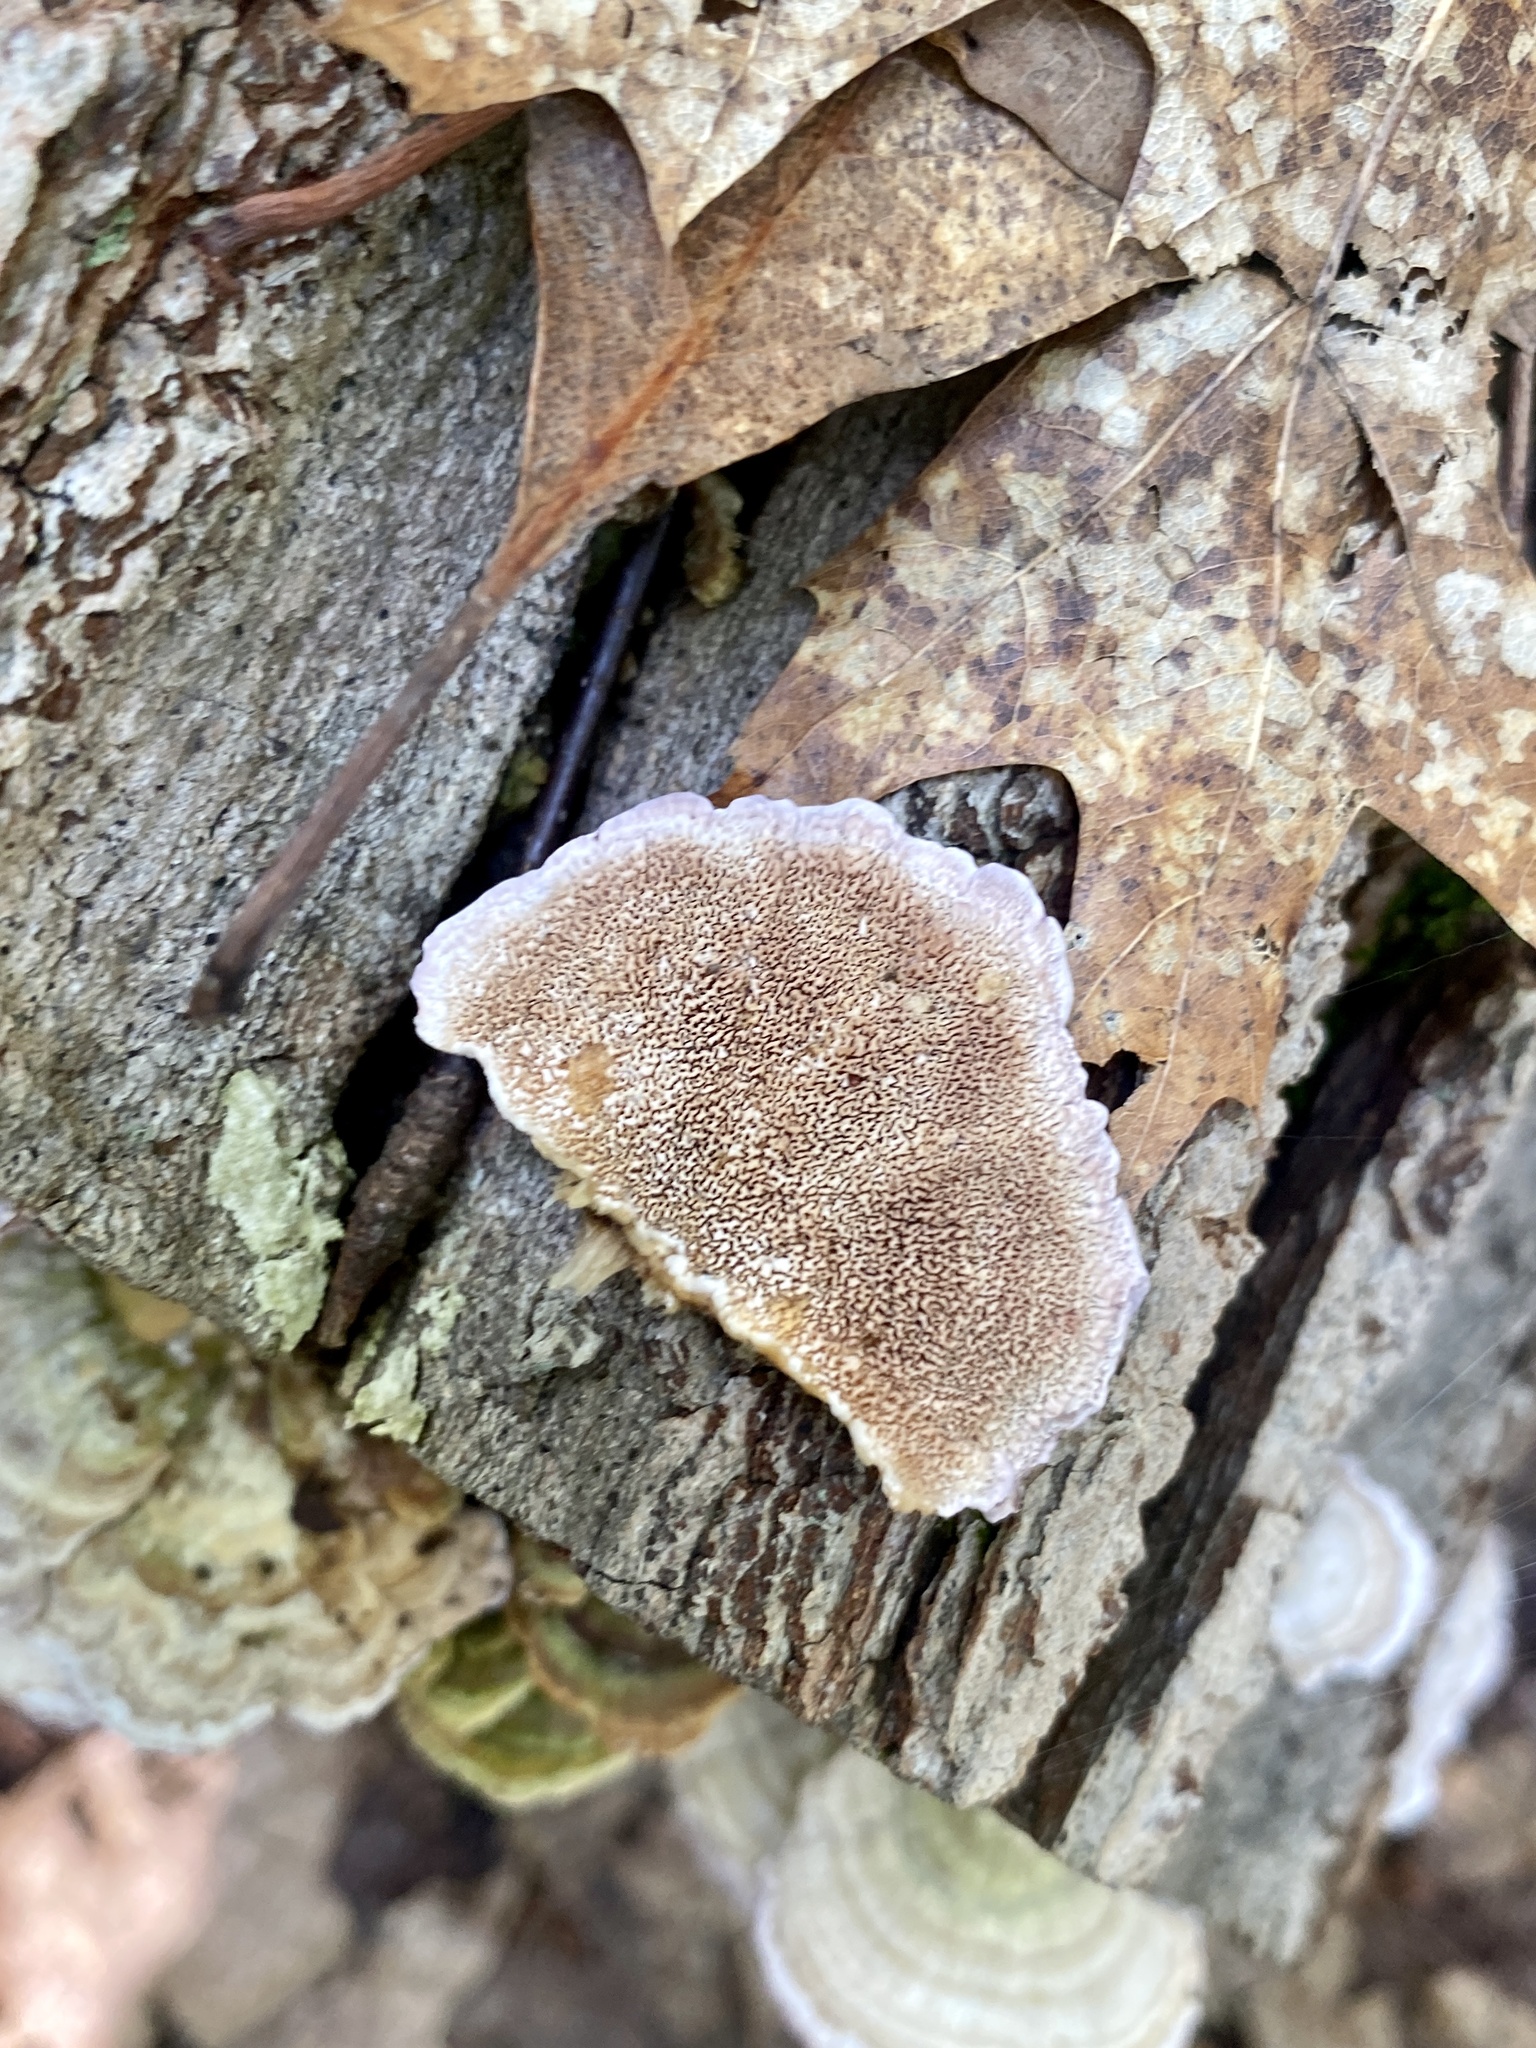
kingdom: Fungi
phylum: Basidiomycota
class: Agaricomycetes
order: Hymenochaetales
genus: Trichaptum
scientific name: Trichaptum biforme
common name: Violet-toothed polypore
